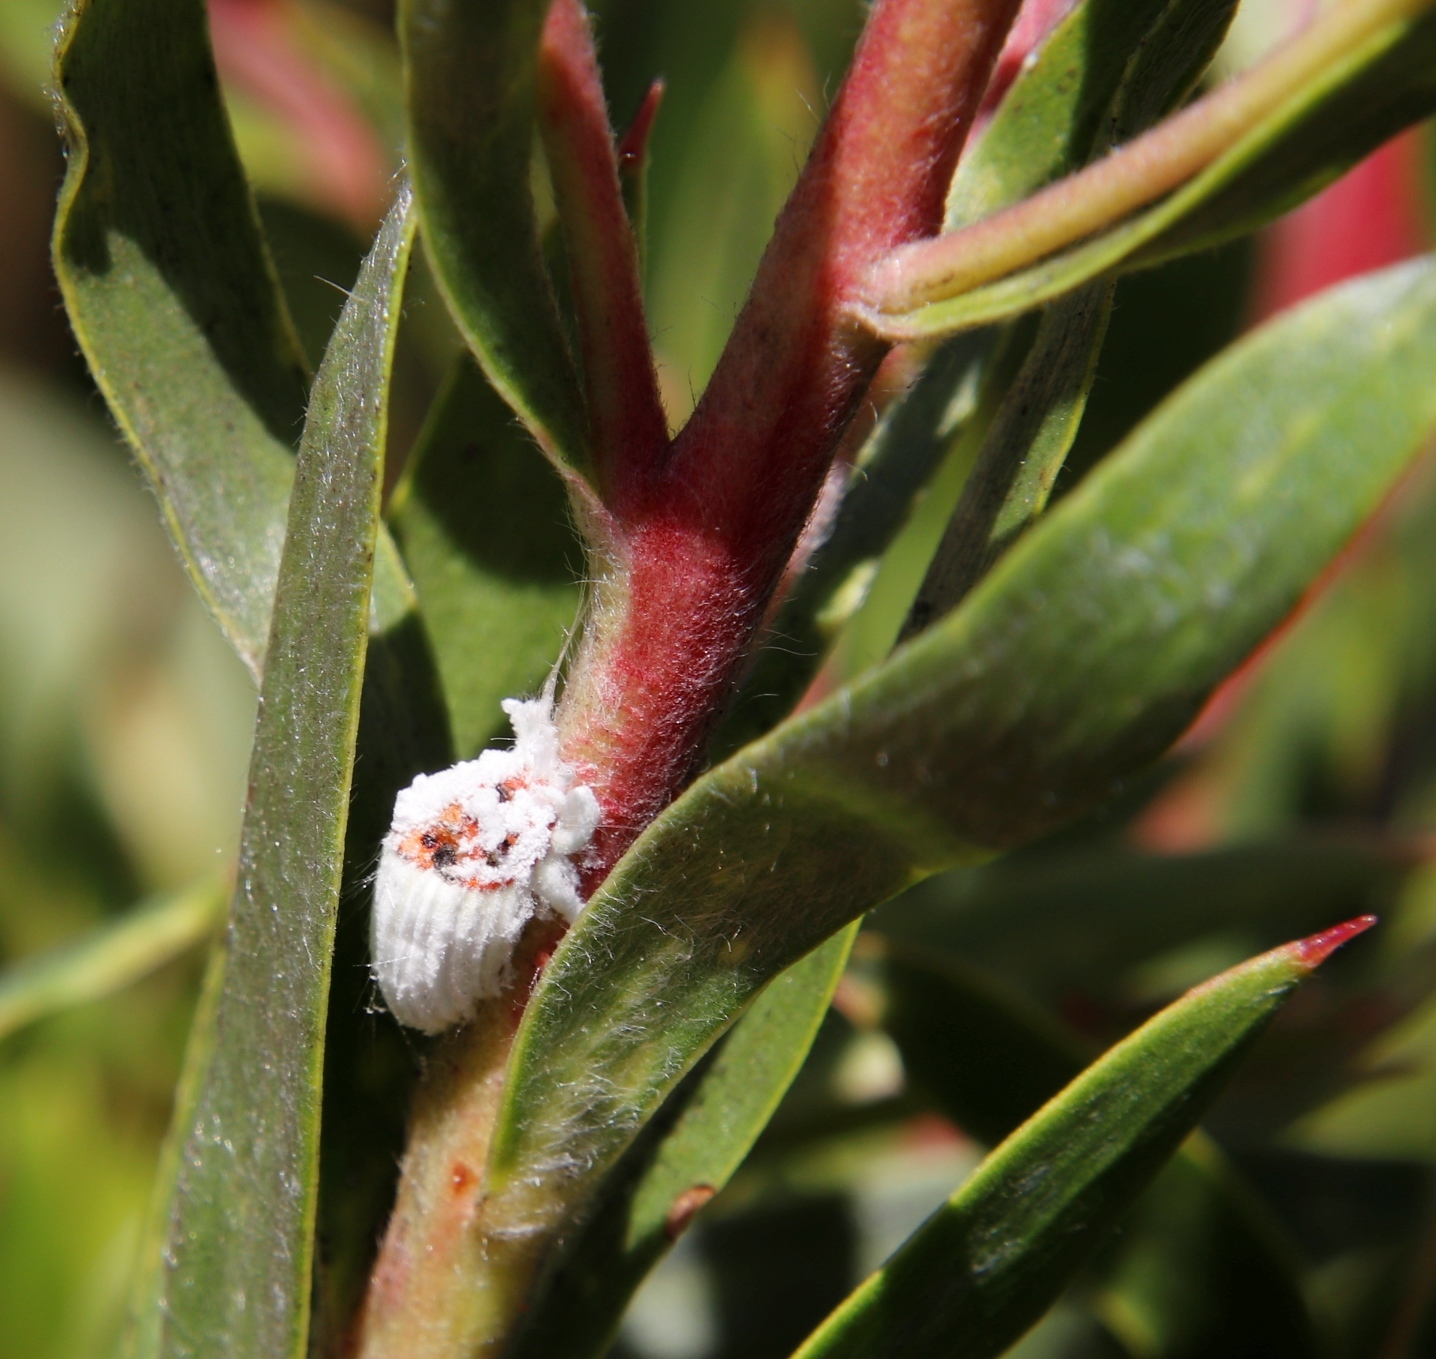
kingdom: Animalia
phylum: Arthropoda
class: Insecta
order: Hemiptera
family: Margarodidae
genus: Icerya
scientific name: Icerya purchasi
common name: Cottony cushion scale
